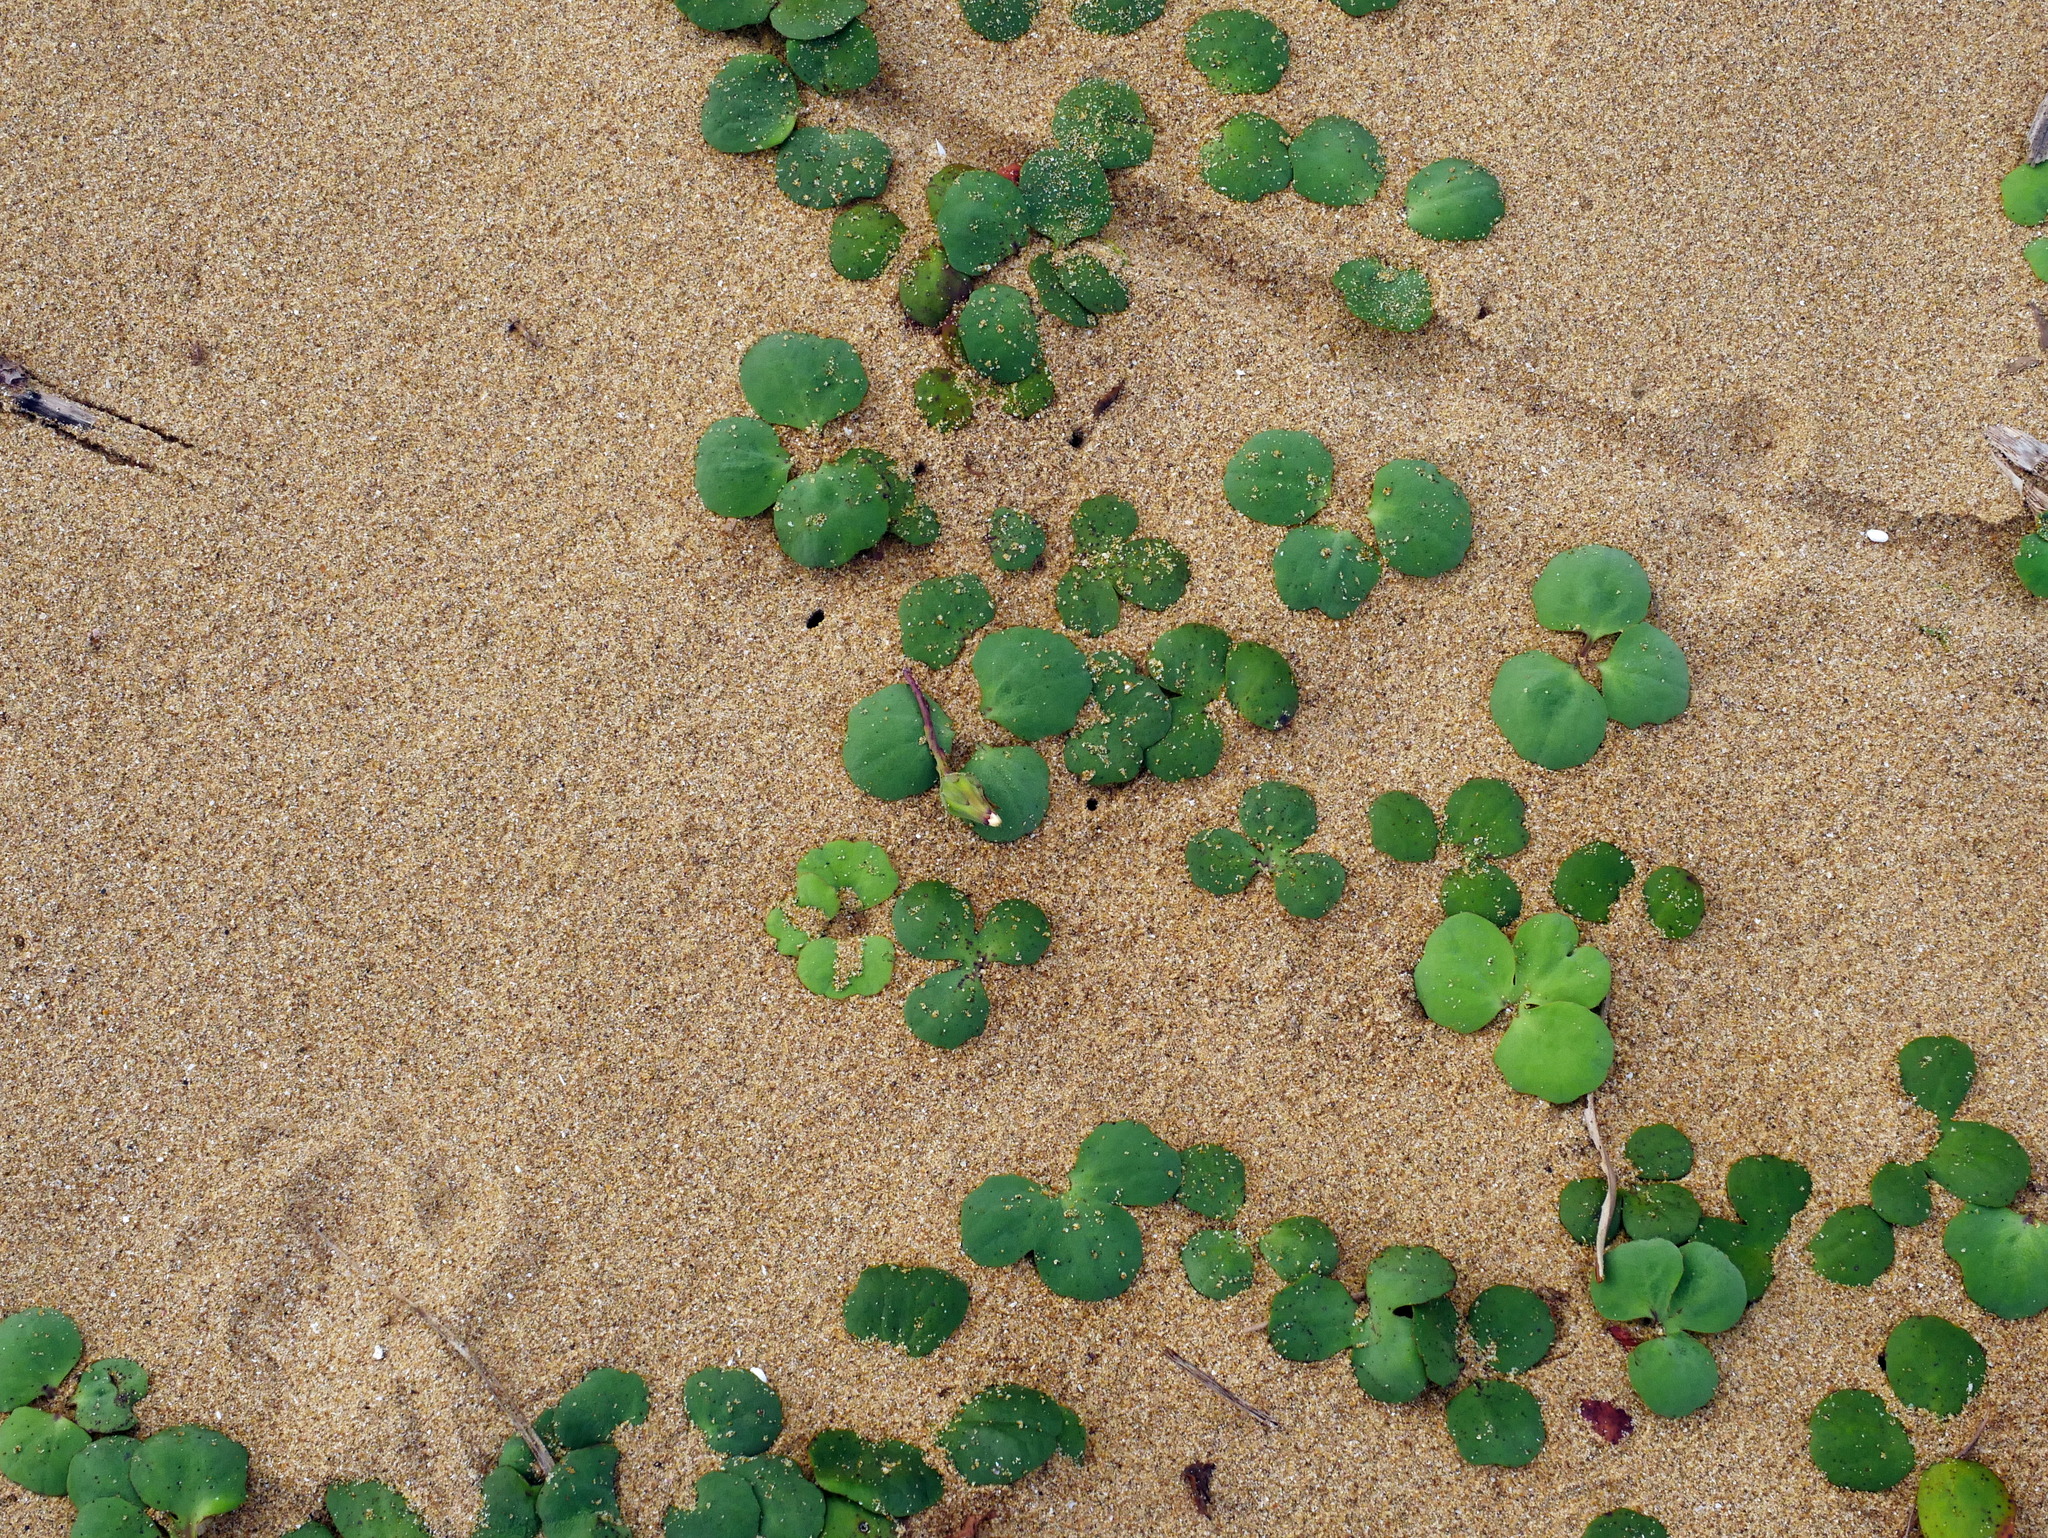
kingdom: Plantae
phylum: Tracheophyta
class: Magnoliopsida
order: Asterales
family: Asteraceae
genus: Ixeris
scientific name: Ixeris repens
